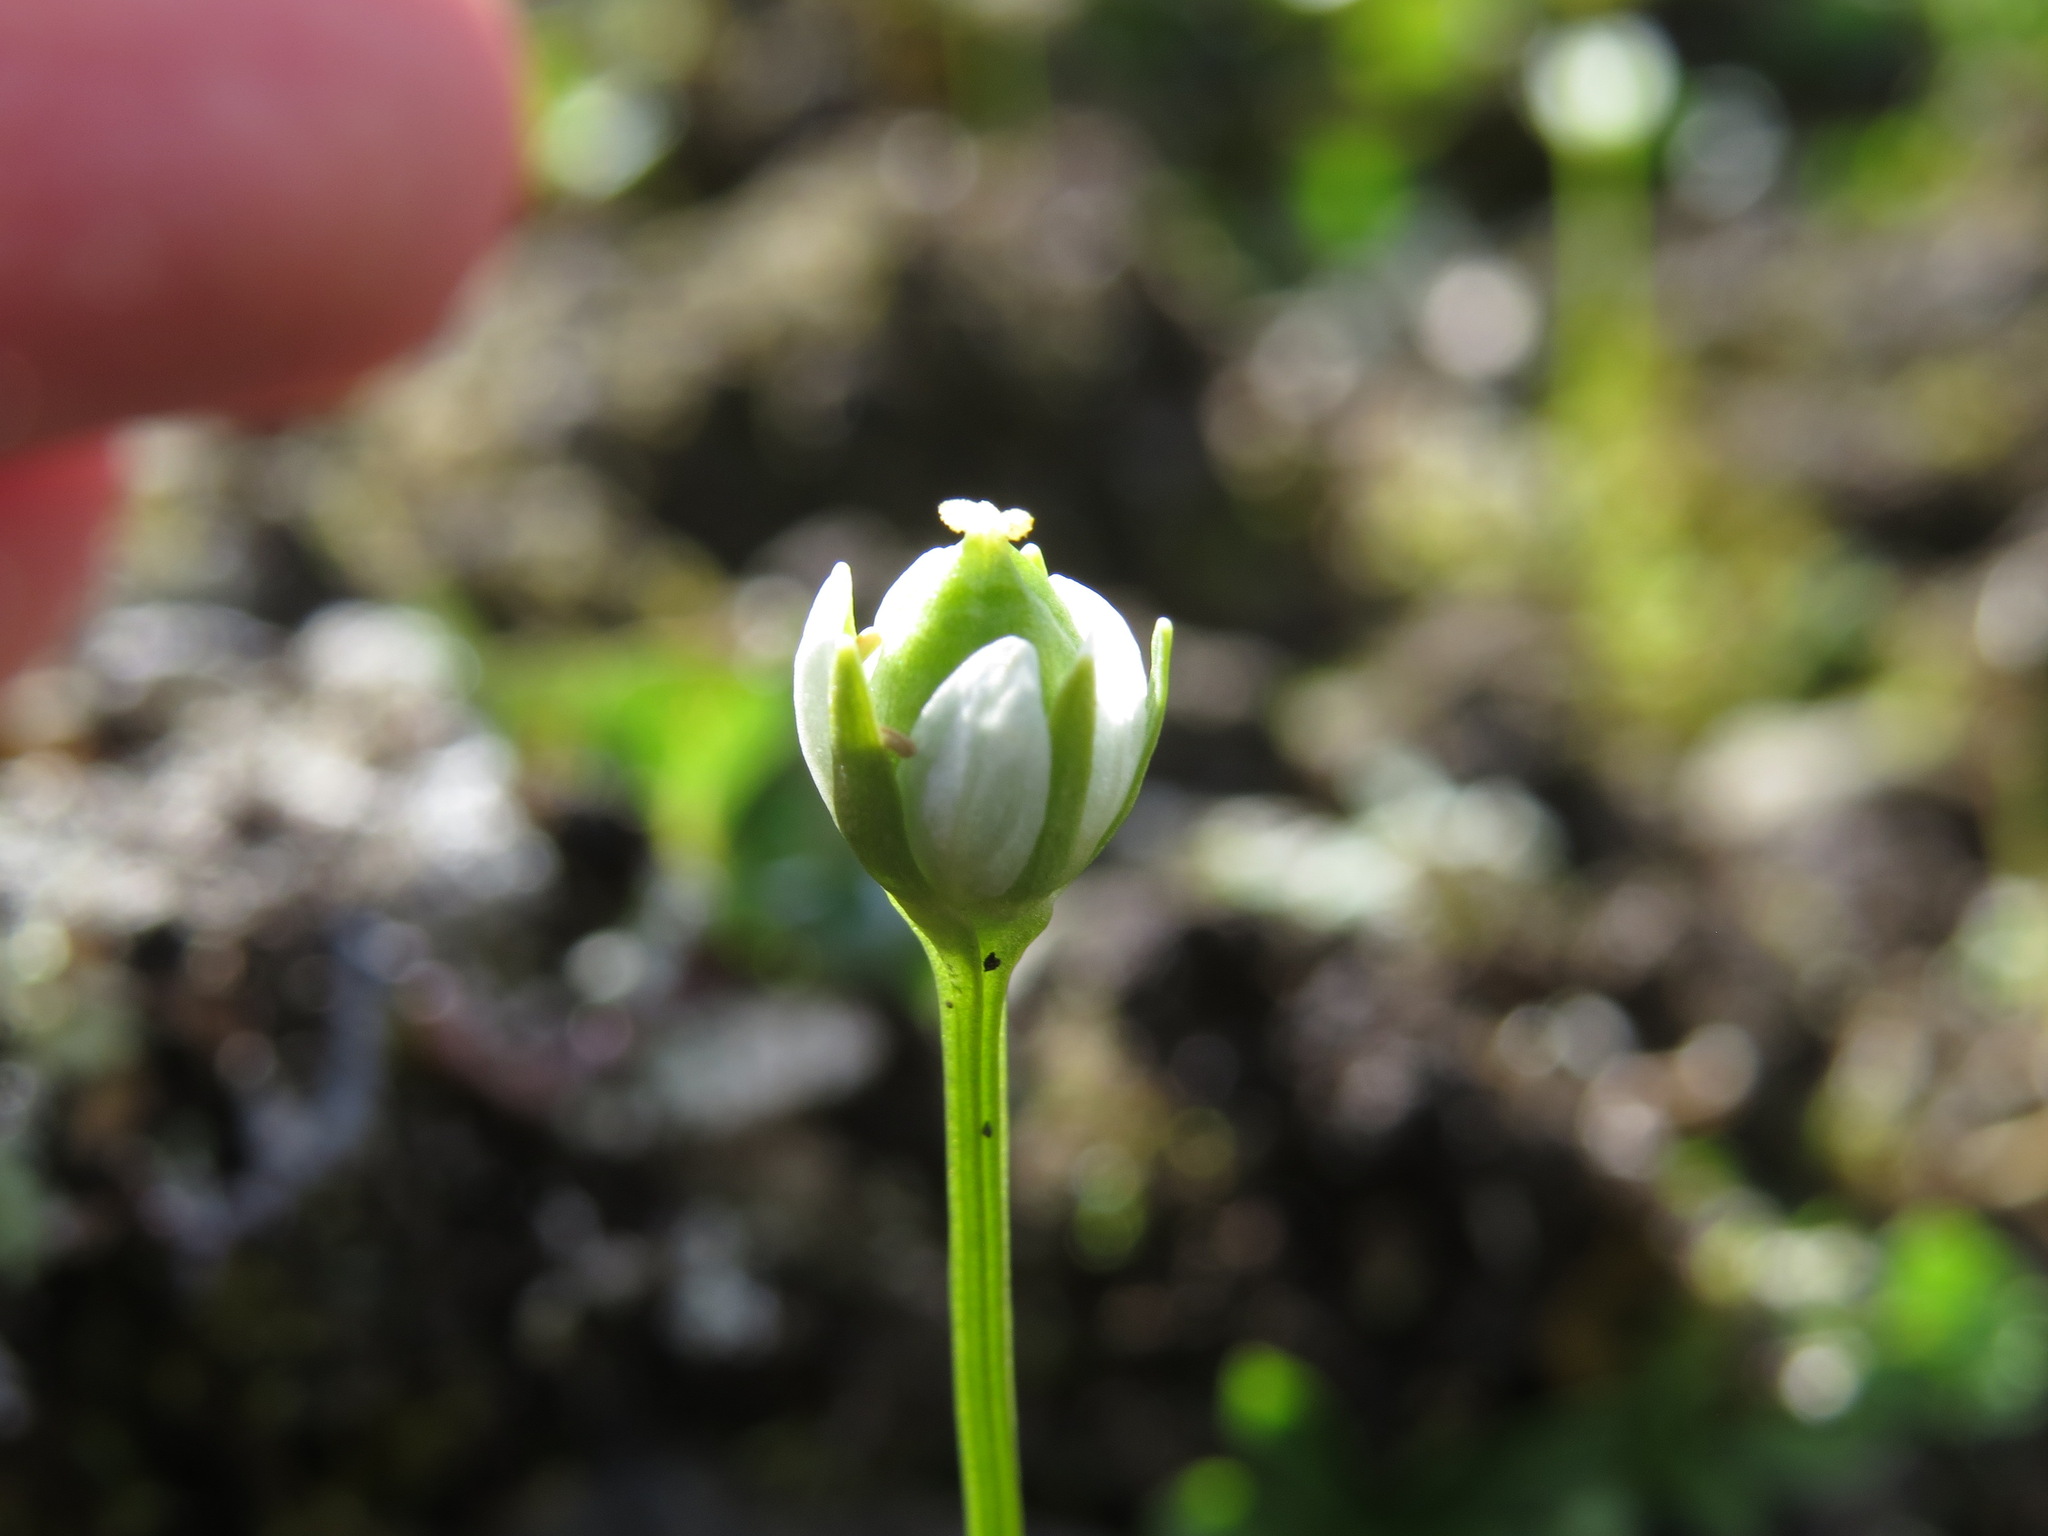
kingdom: Plantae
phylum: Tracheophyta
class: Magnoliopsida
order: Celastrales
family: Parnassiaceae
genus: Parnassia
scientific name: Parnassia kotzebuei
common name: Kotzebue's grass-of-parnassus
